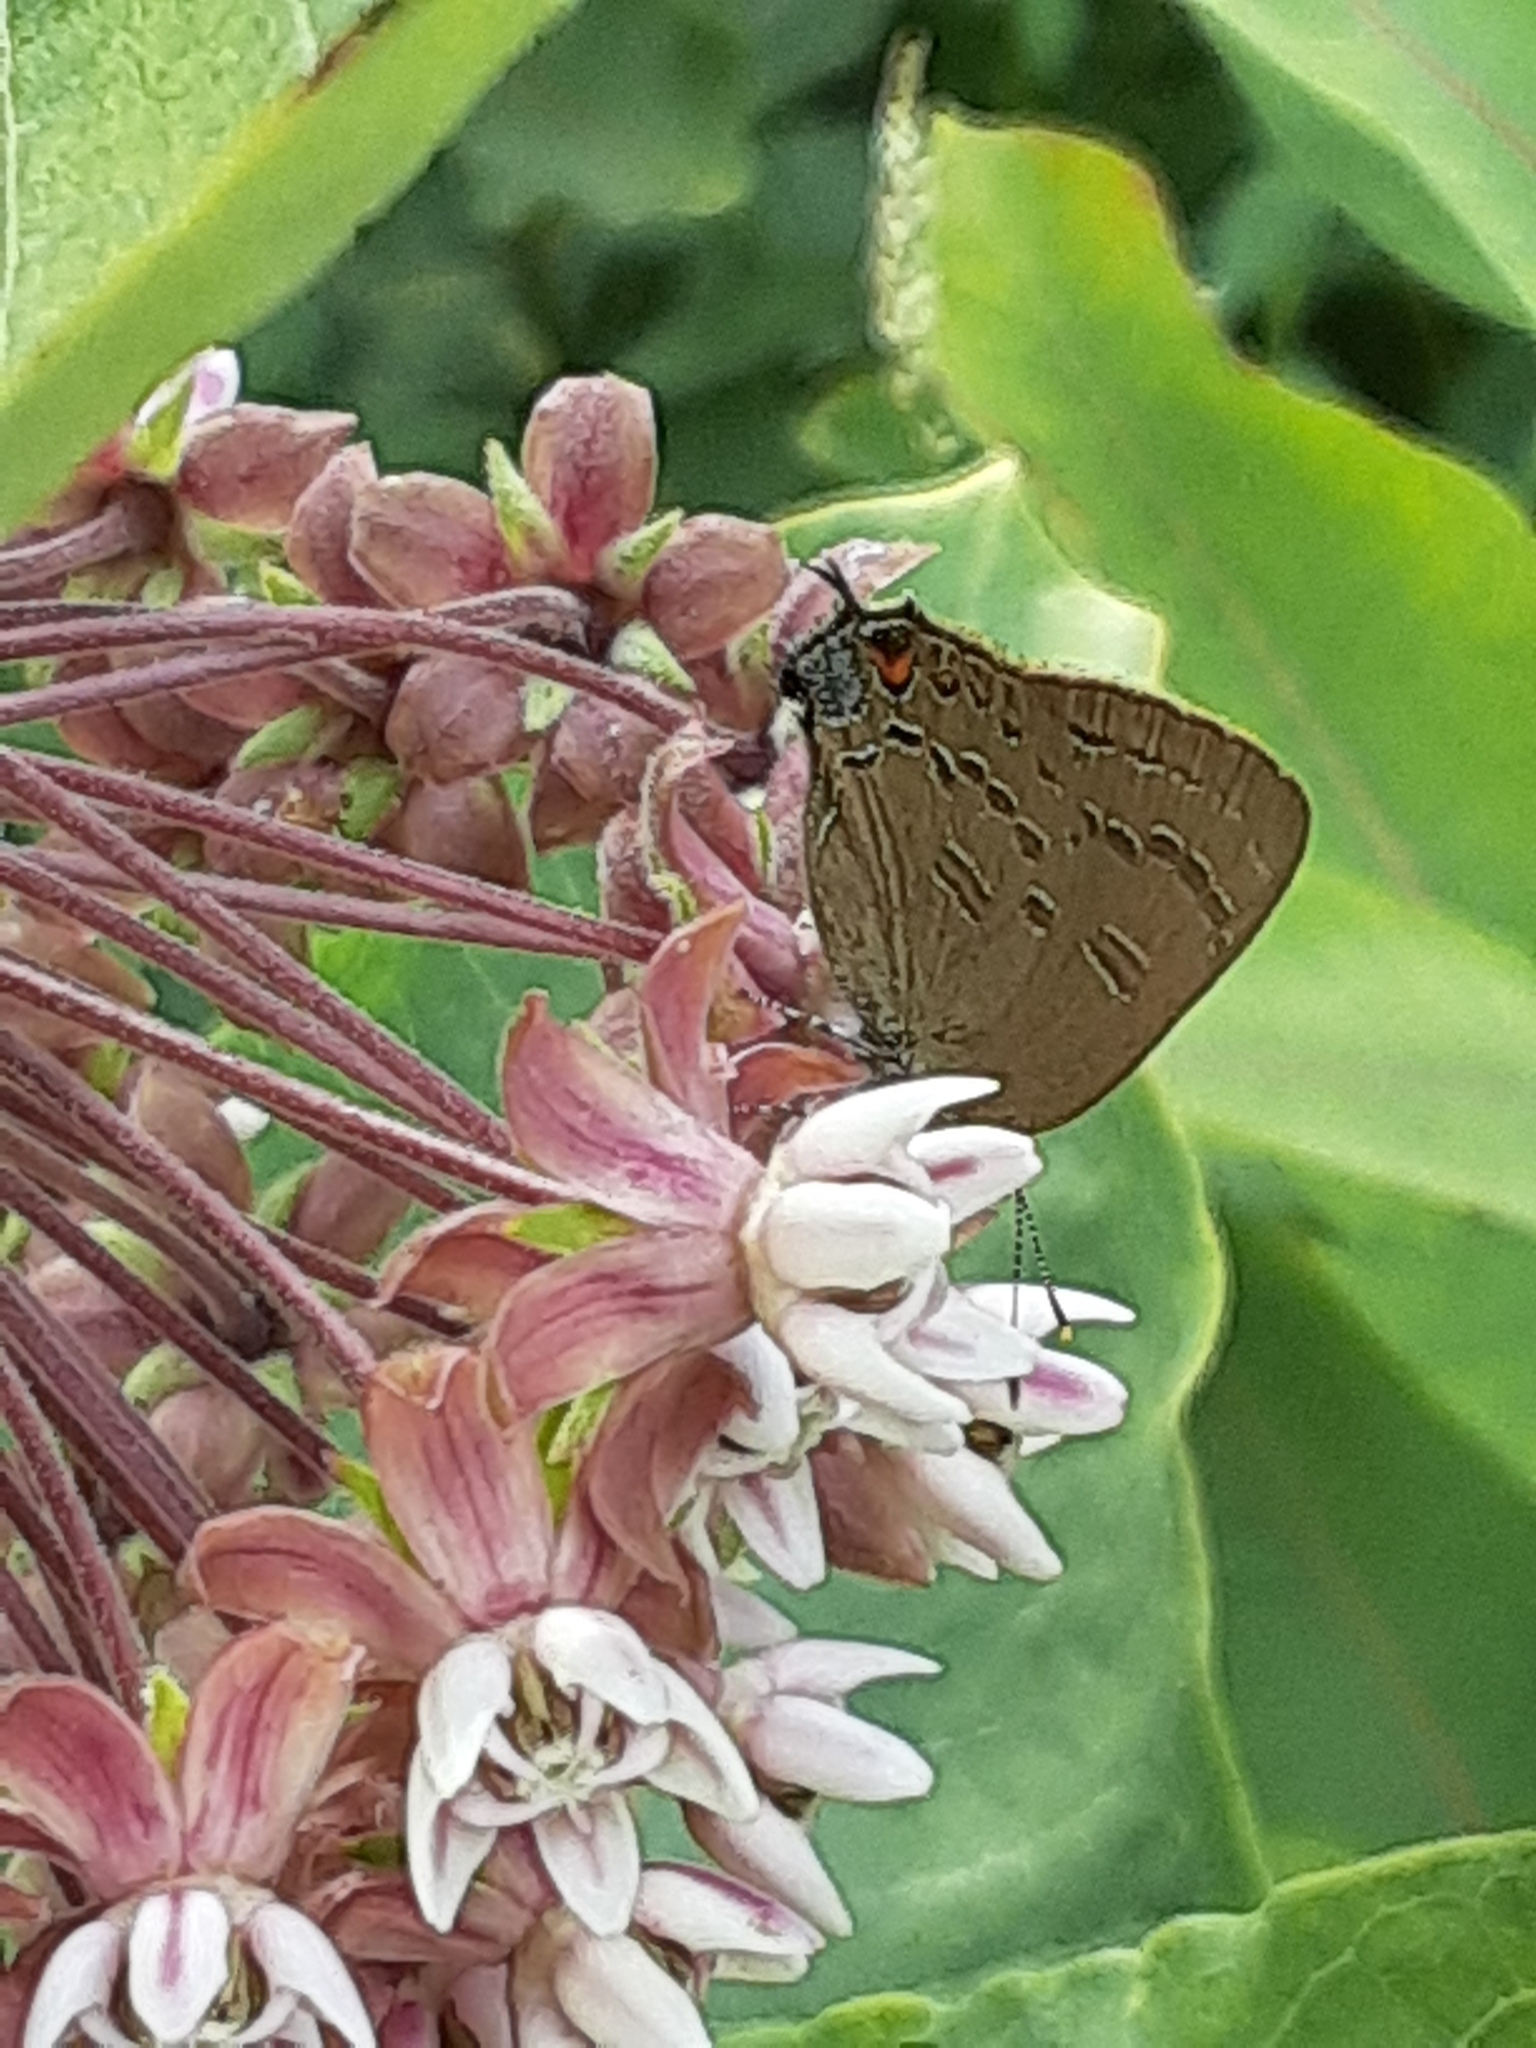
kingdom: Animalia
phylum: Arthropoda
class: Insecta
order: Lepidoptera
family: Lycaenidae
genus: Satyrium
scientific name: Satyrium calanus
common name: Banded hairstreak
